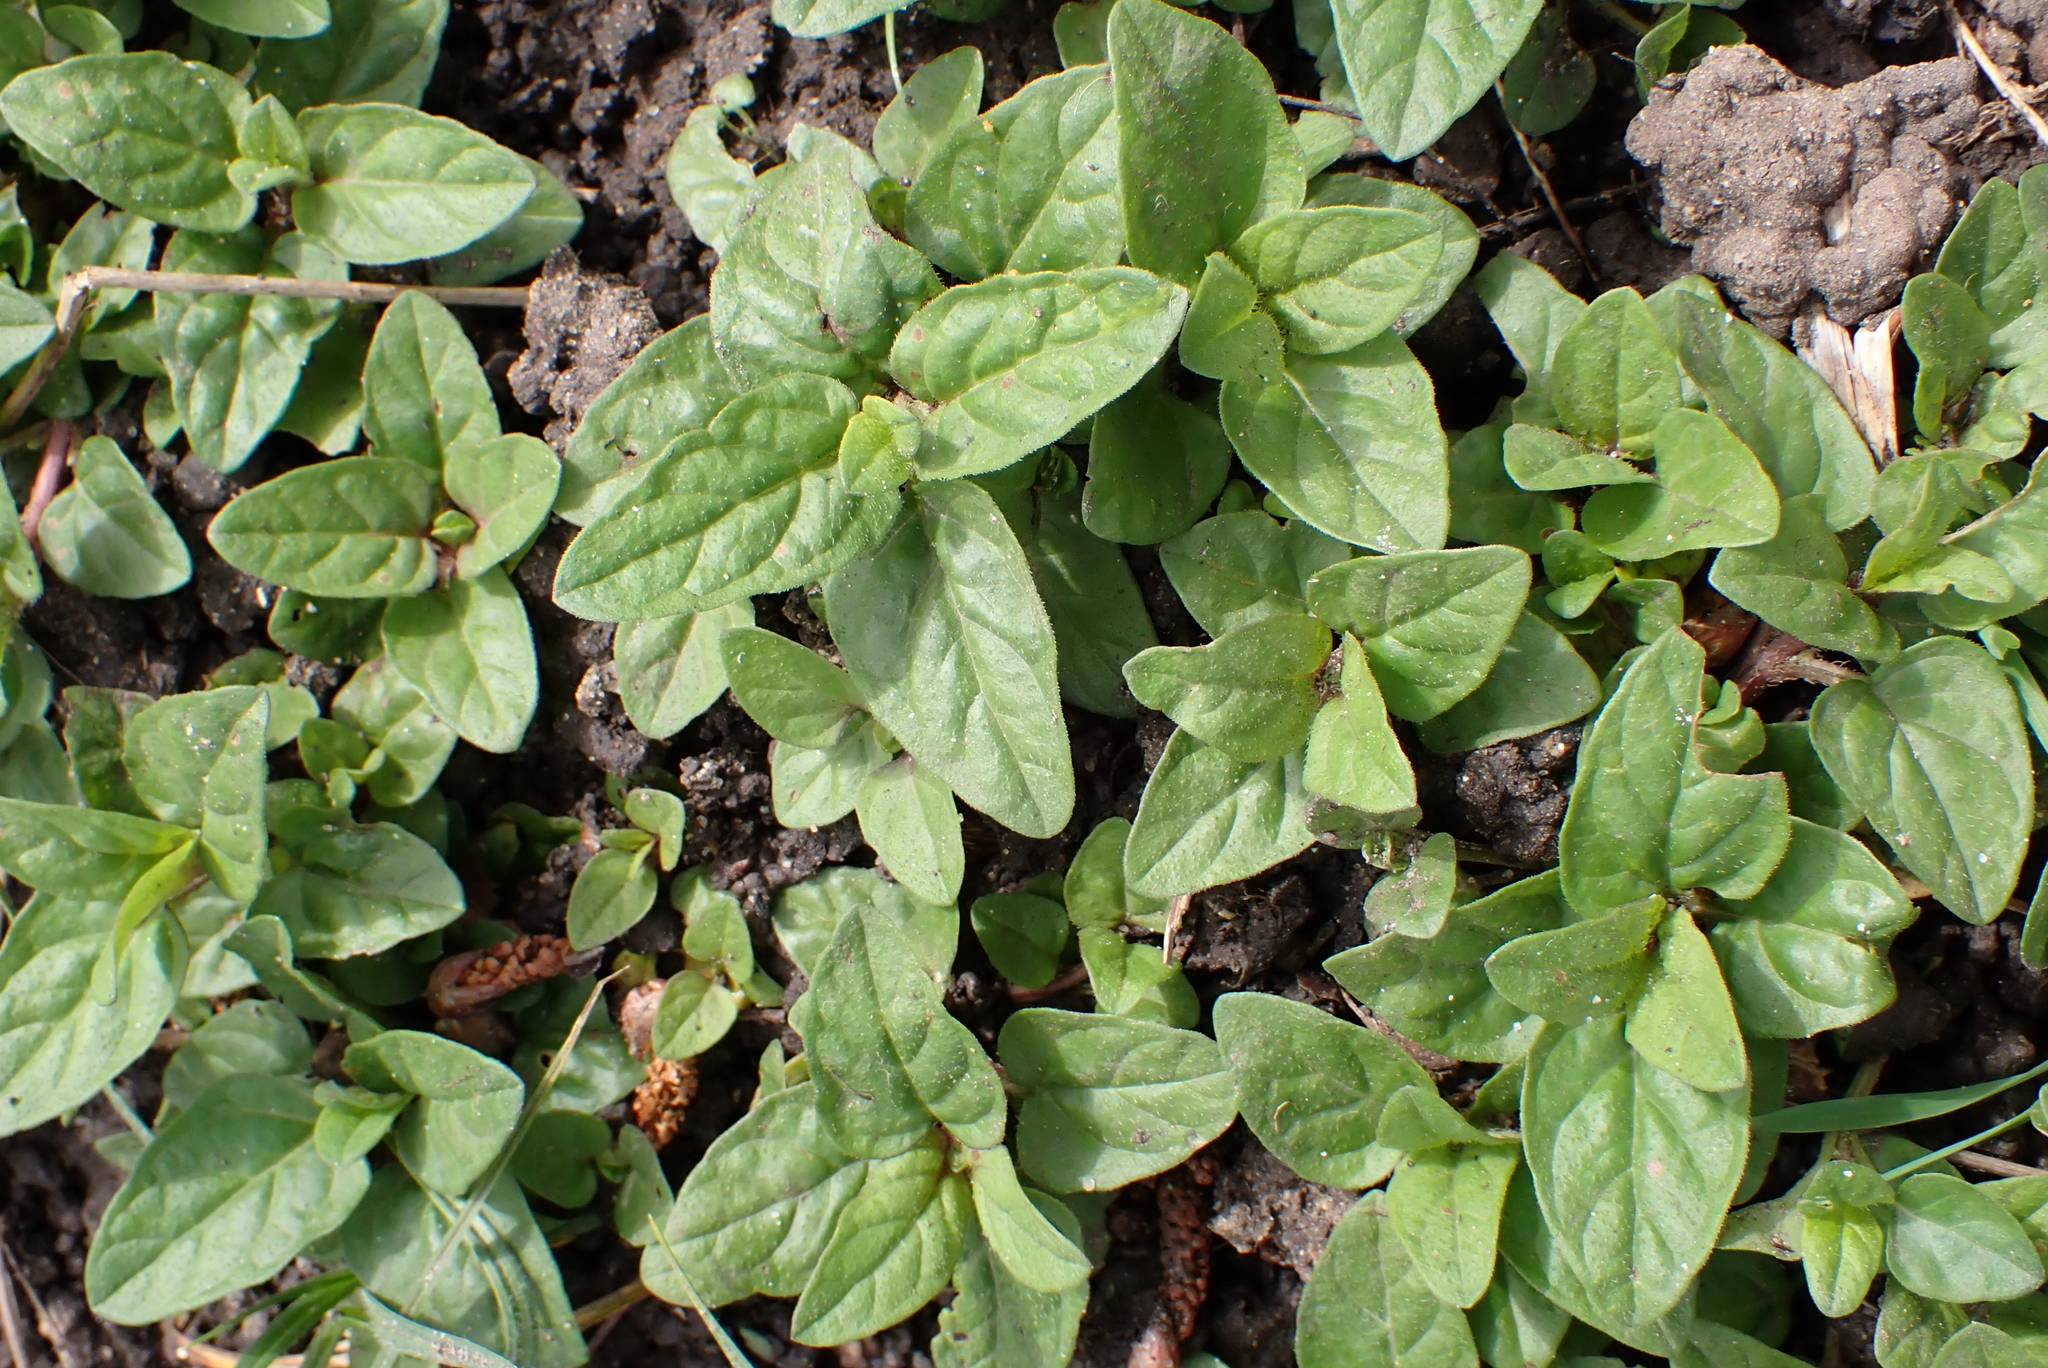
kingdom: Plantae
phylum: Tracheophyta
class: Magnoliopsida
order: Lamiales
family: Lamiaceae
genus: Prunella
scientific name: Prunella vulgaris
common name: Heal-all
